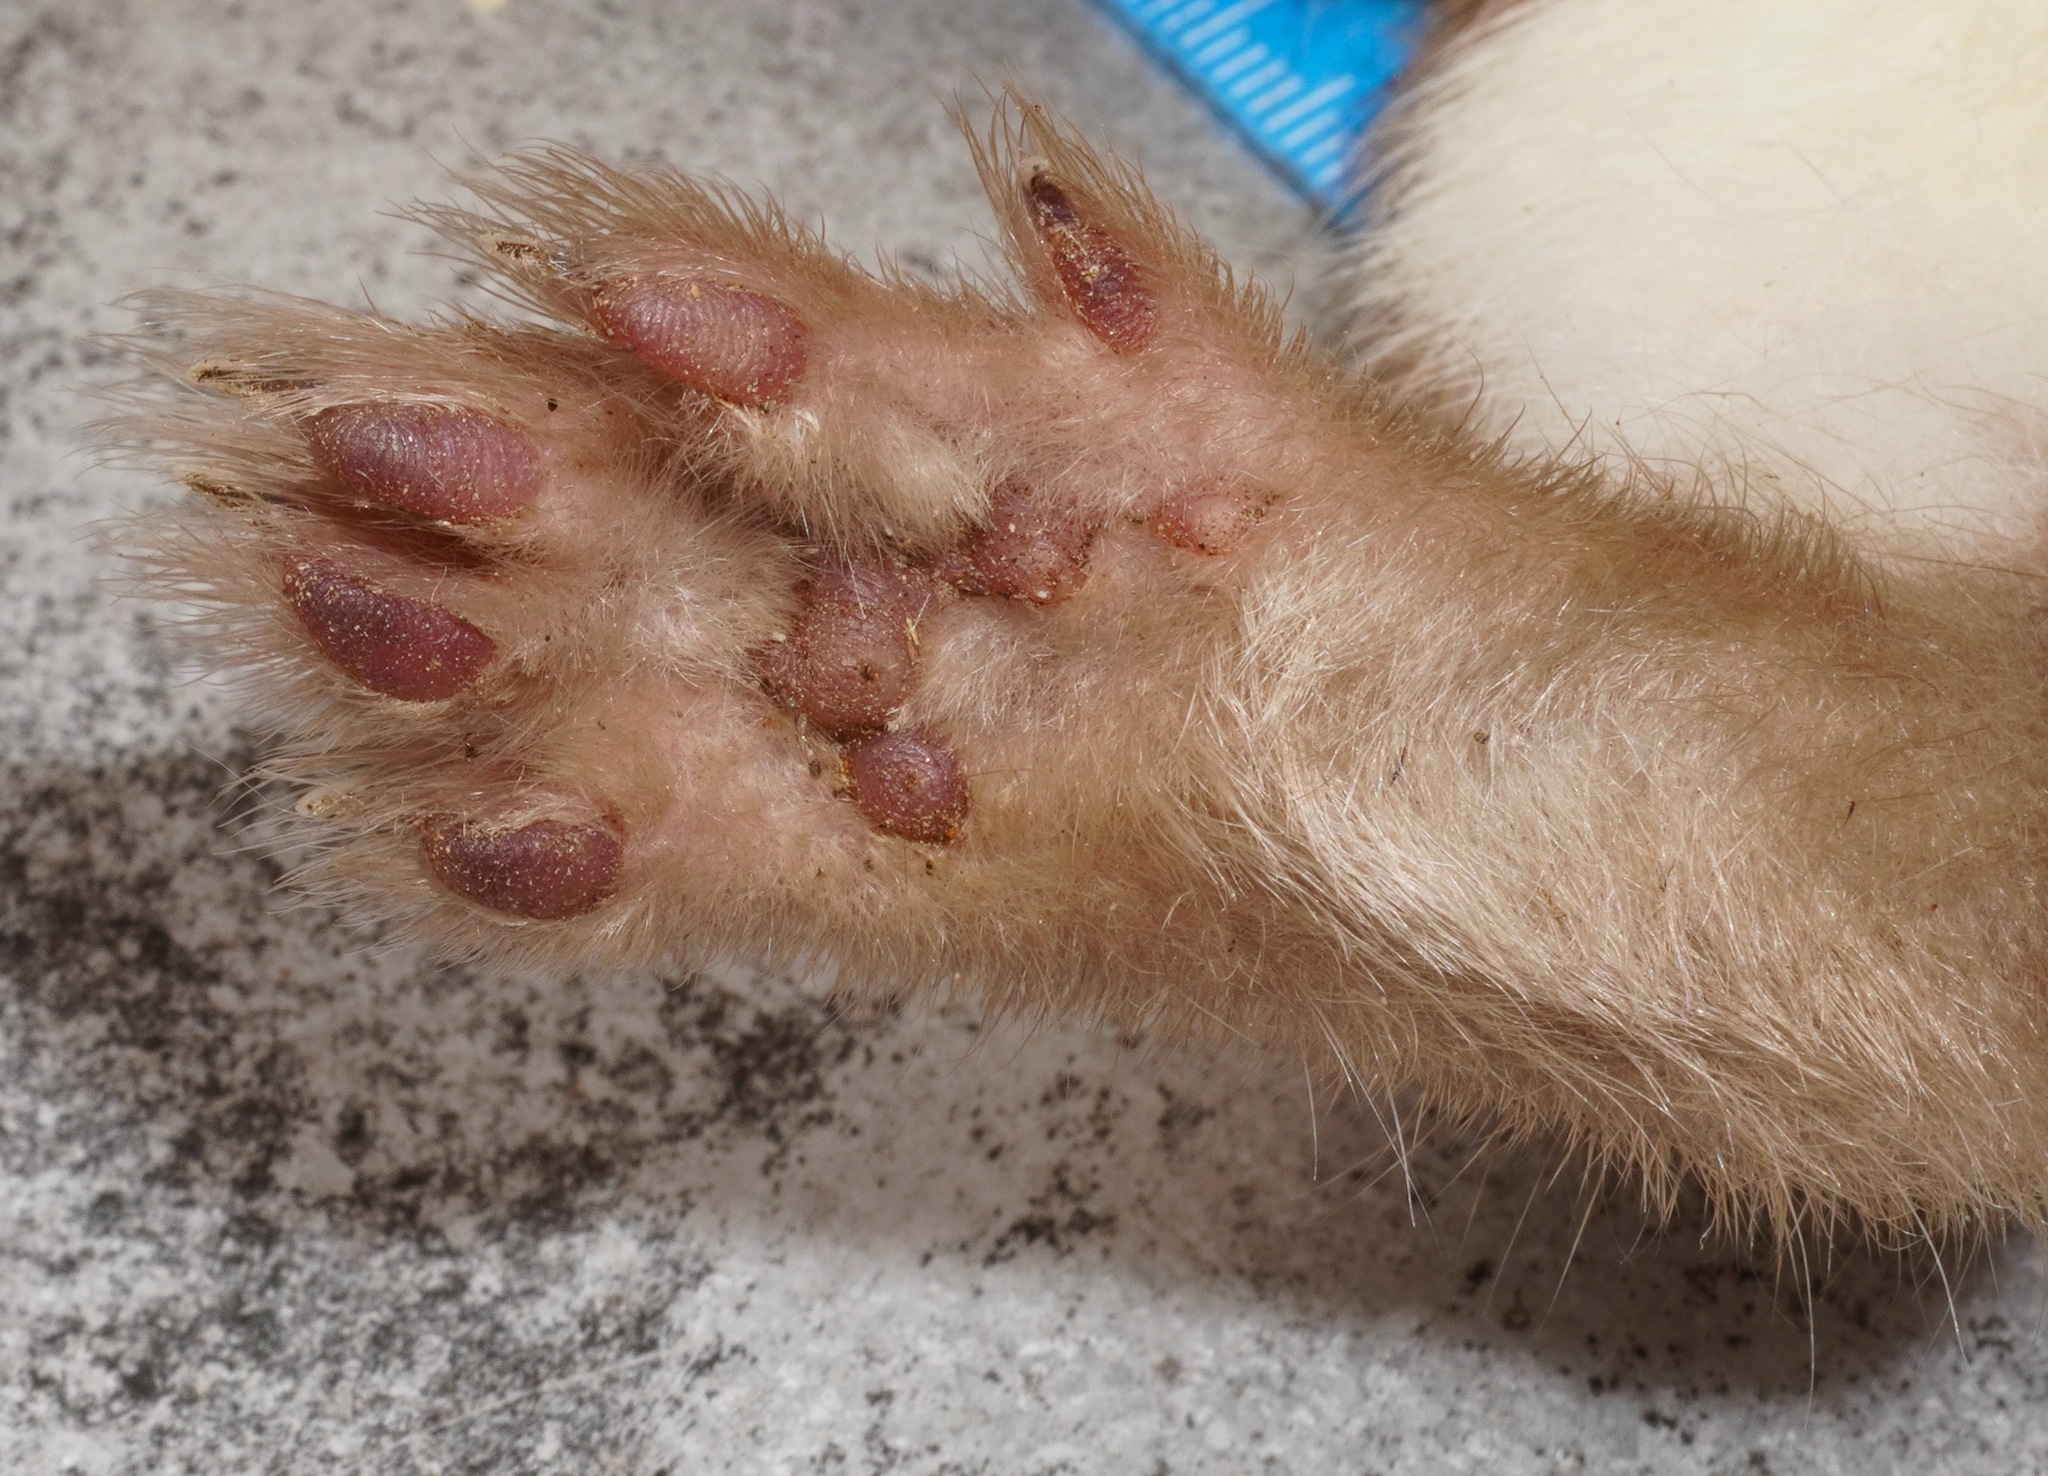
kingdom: Animalia
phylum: Chordata
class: Mammalia
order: Carnivora
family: Mustelidae
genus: Mustela
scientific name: Mustela erminea
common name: Stoat
